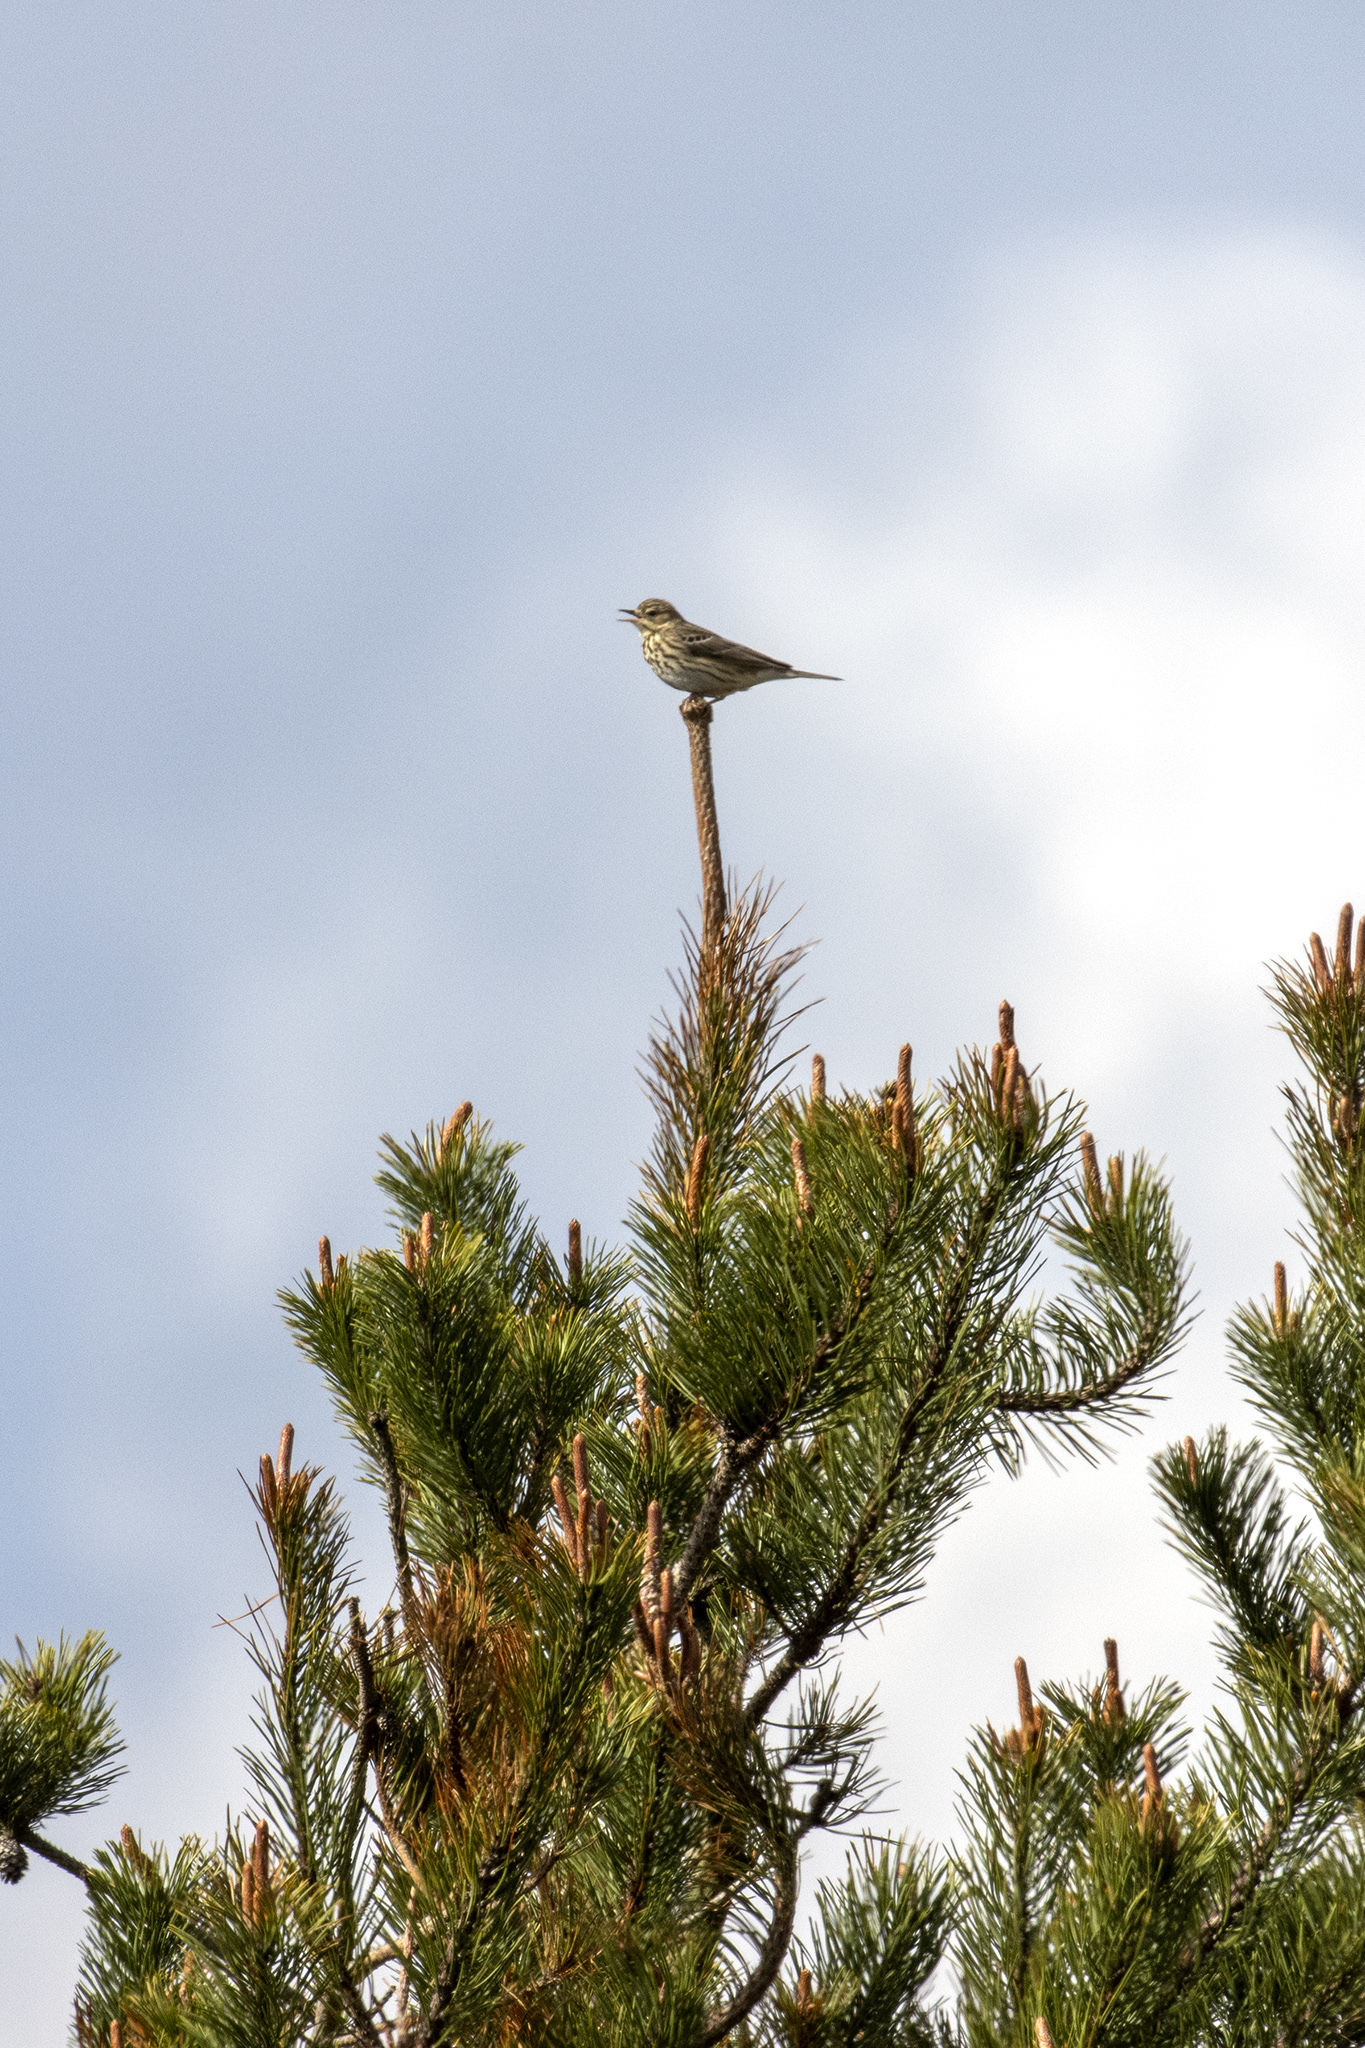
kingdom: Animalia
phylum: Chordata
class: Aves
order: Passeriformes
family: Motacillidae
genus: Anthus
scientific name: Anthus trivialis
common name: Tree pipit
